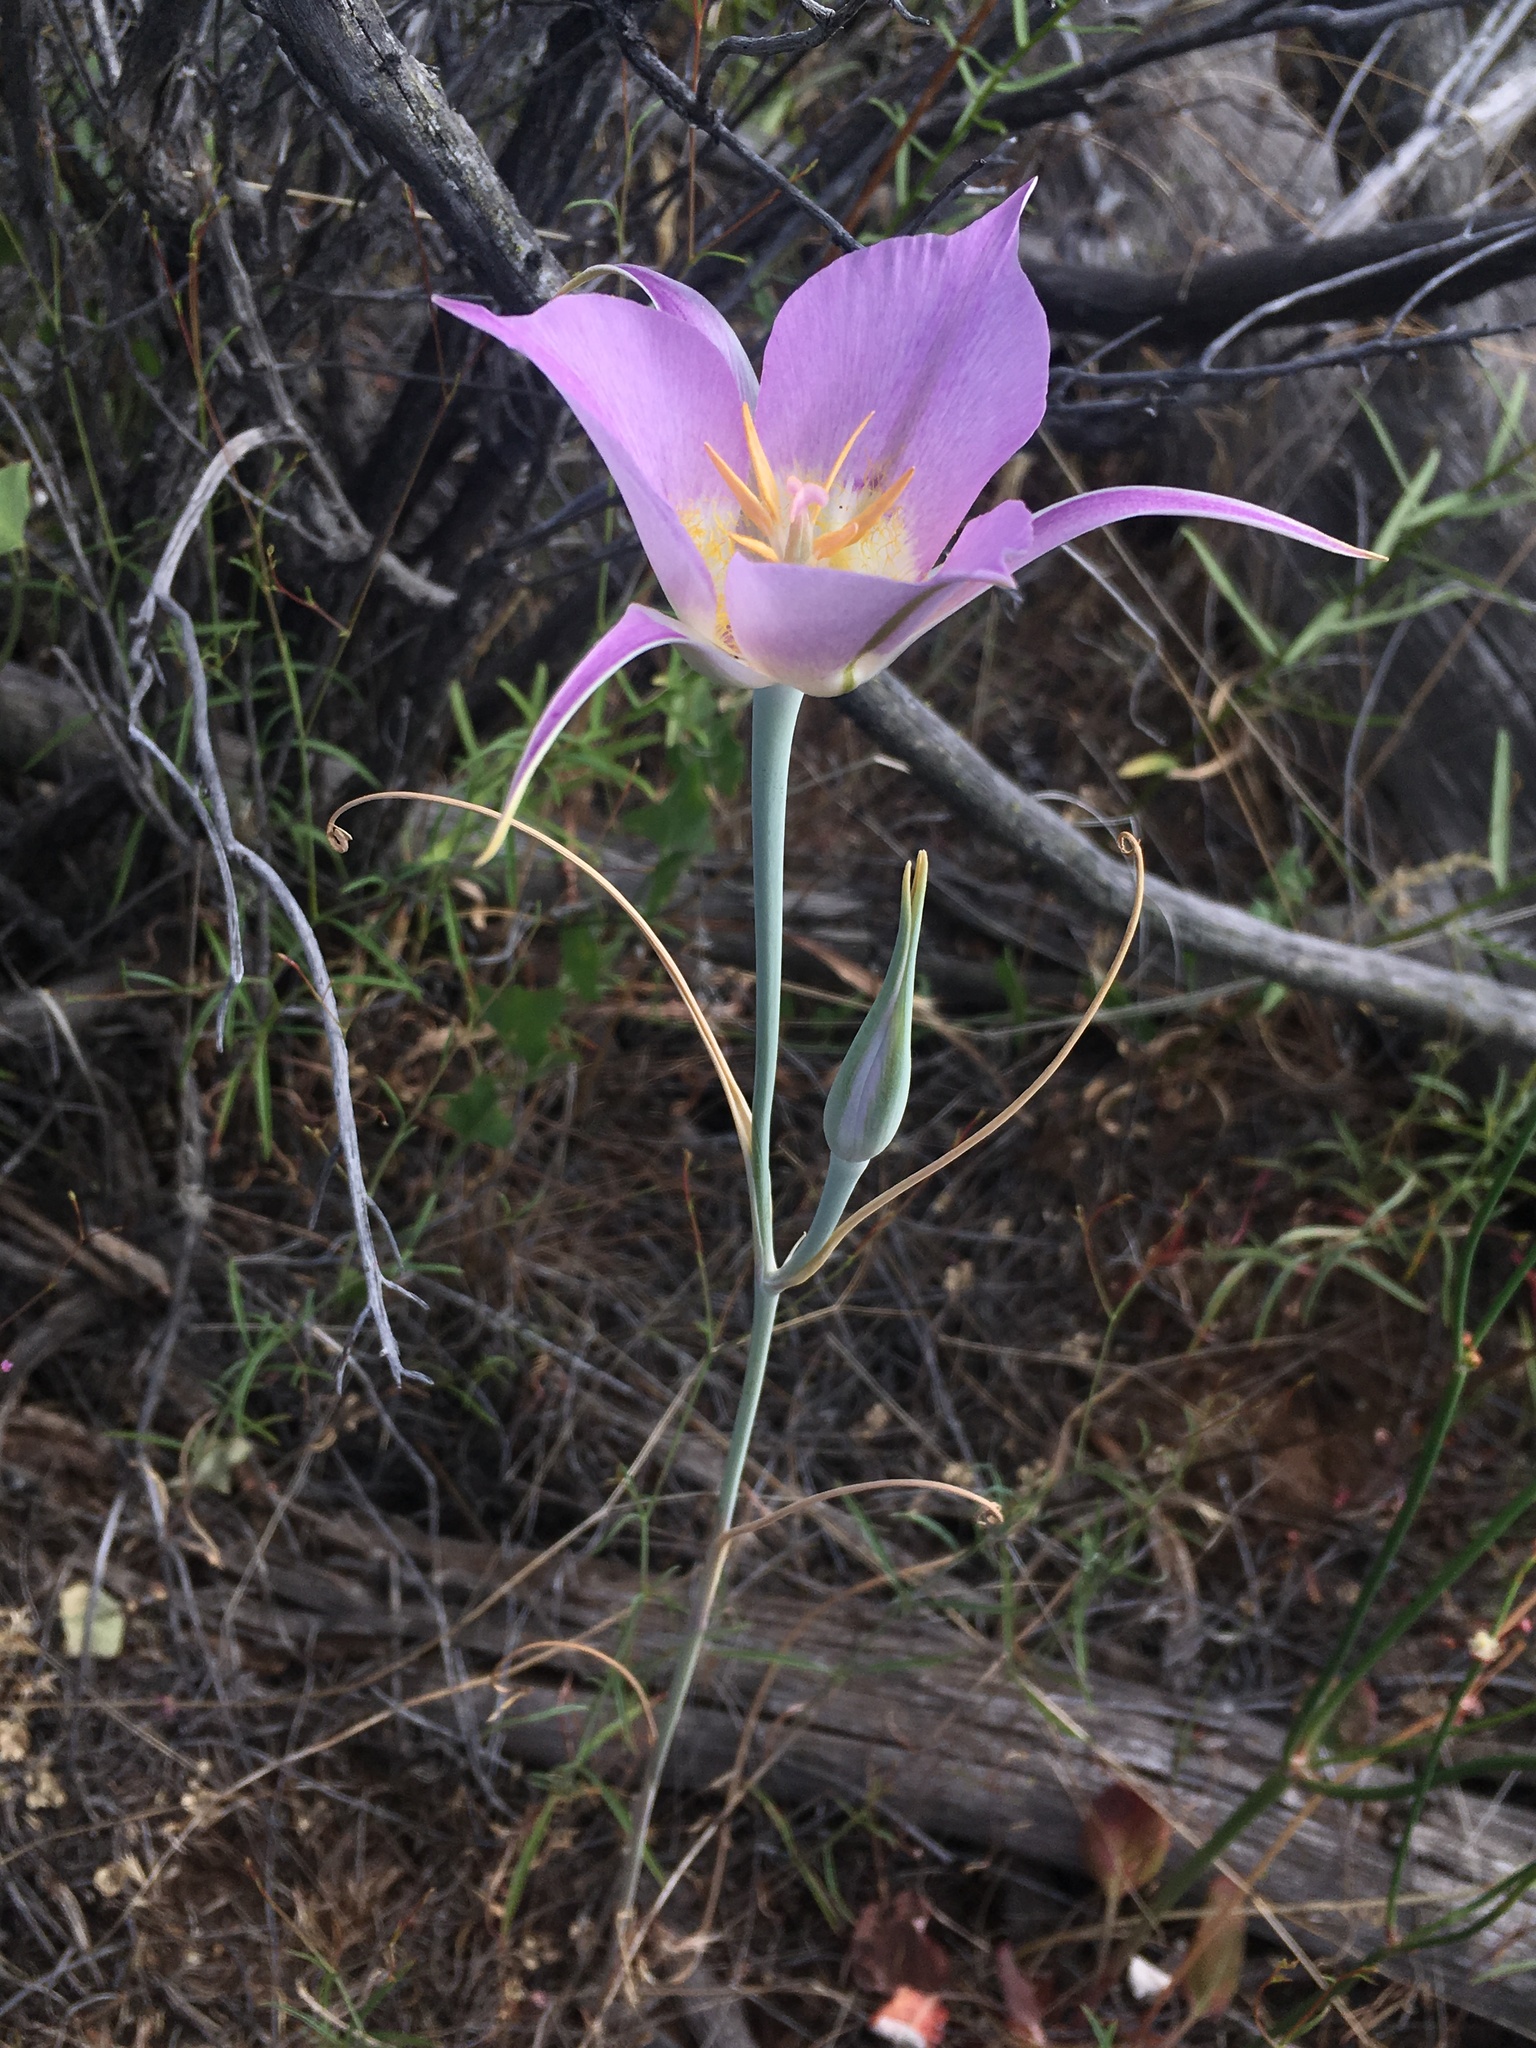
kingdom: Plantae
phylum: Tracheophyta
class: Liliopsida
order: Liliales
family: Liliaceae
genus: Calochortus
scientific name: Calochortus macrocarpus
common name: Green-band mariposa lily
